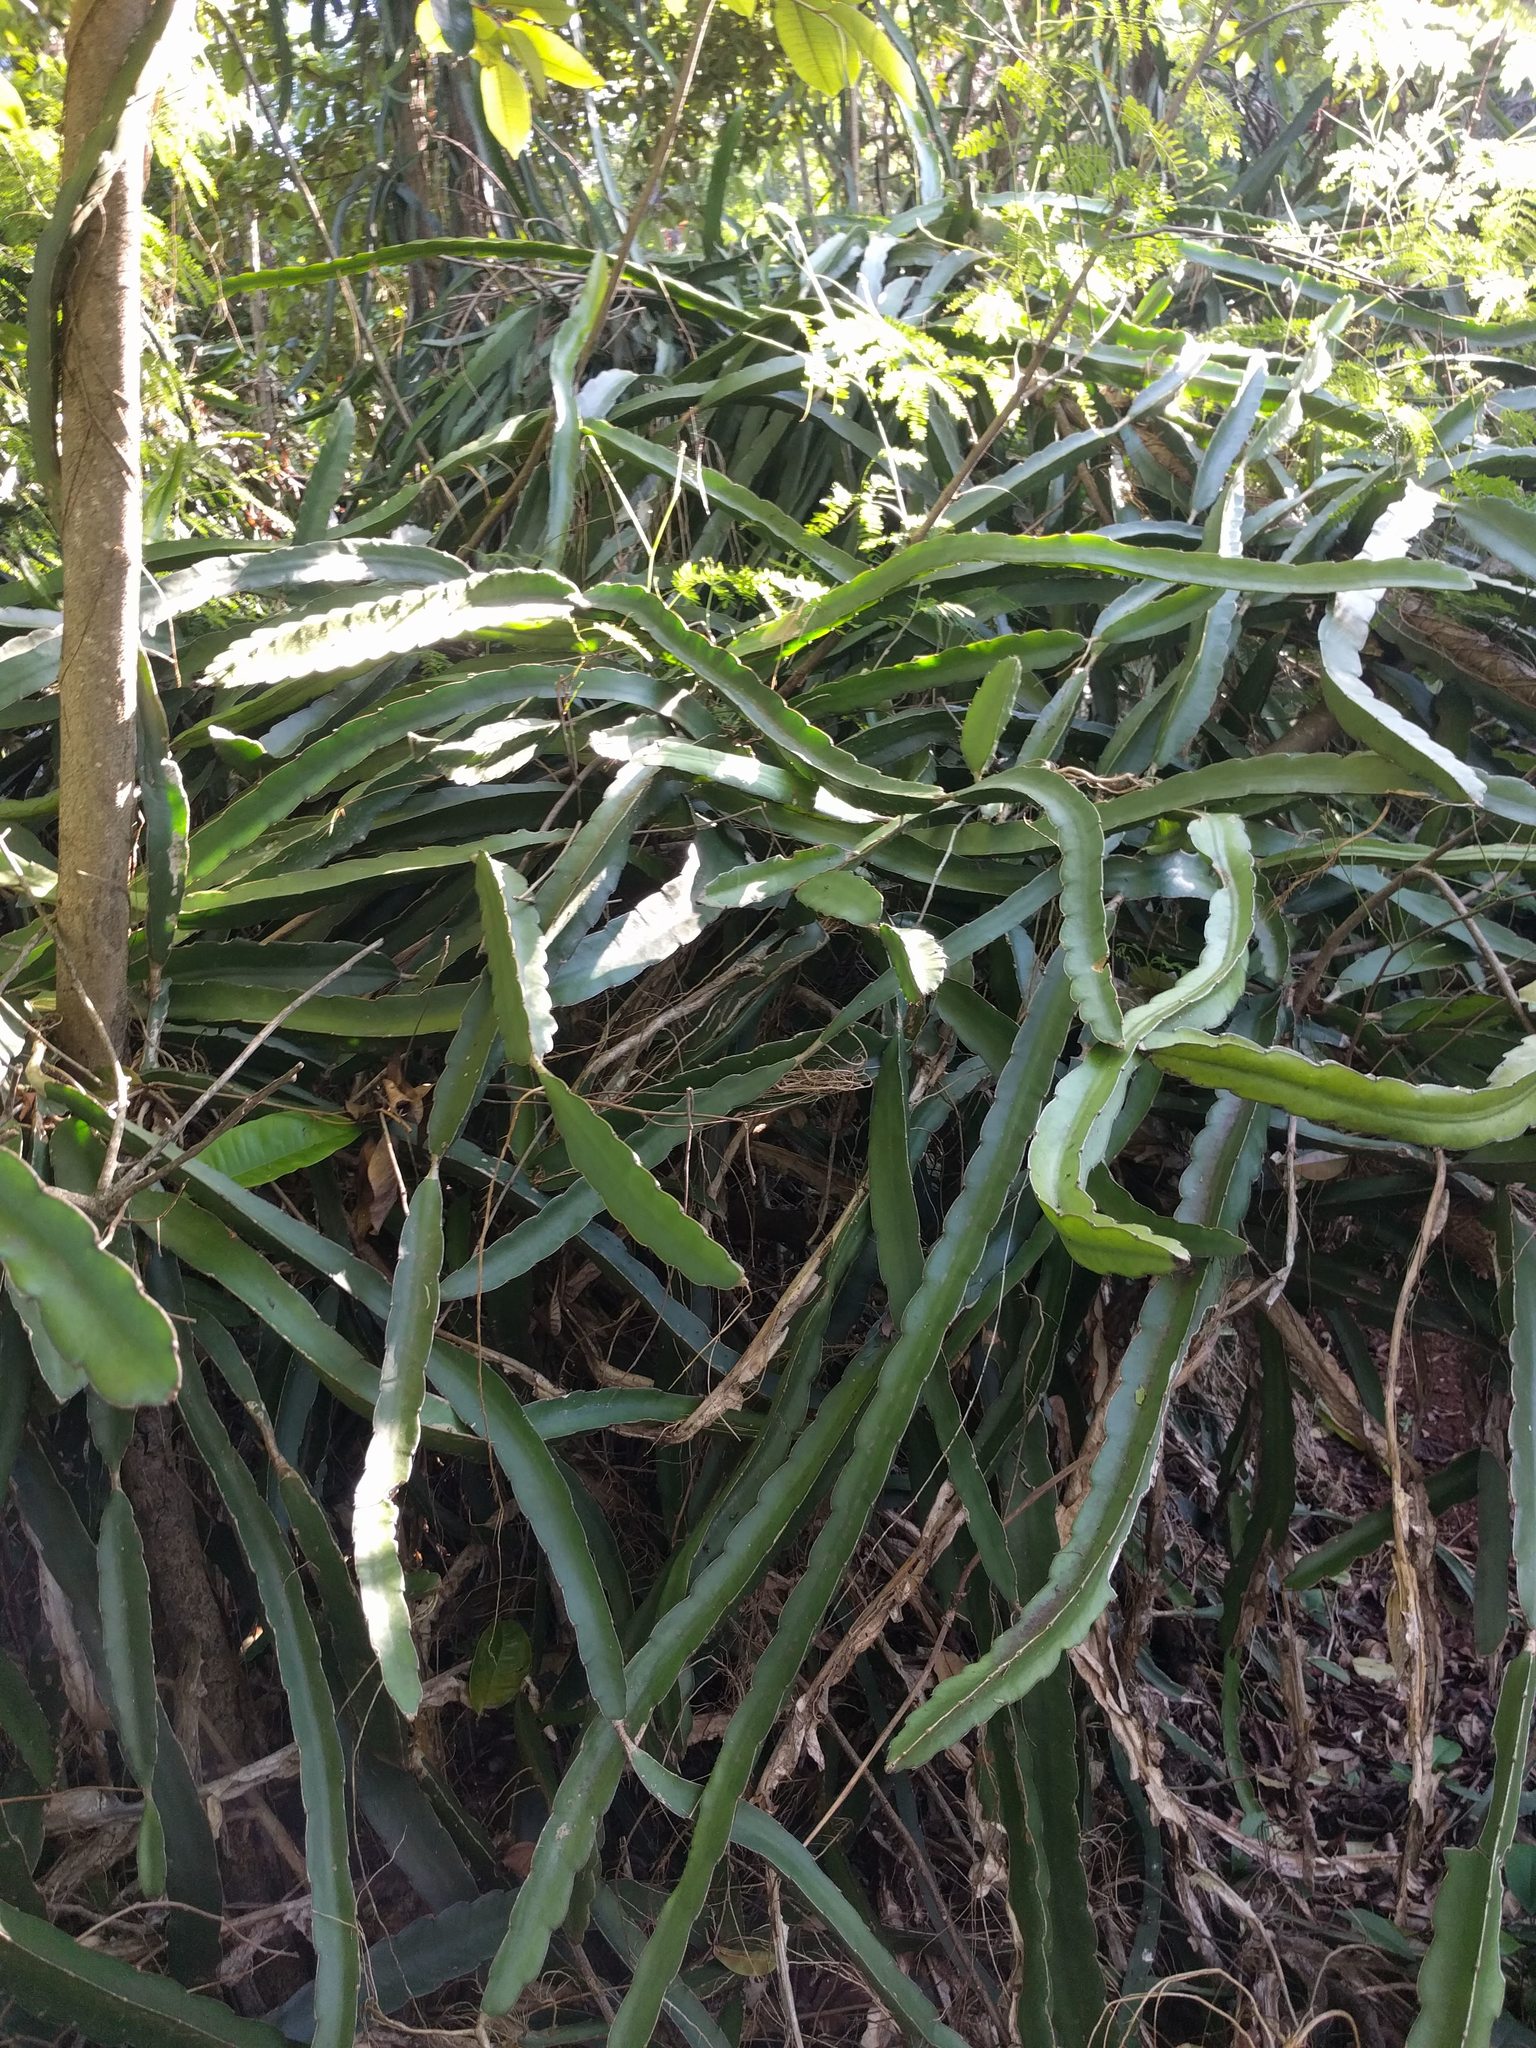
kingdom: Plantae
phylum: Tracheophyta
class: Magnoliopsida
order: Caryophyllales
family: Cactaceae
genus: Selenicereus
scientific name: Selenicereus undatus
